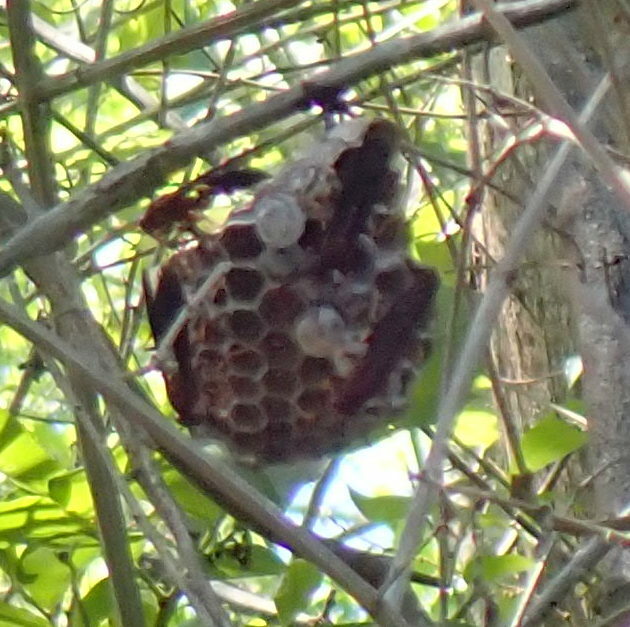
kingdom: Animalia
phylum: Arthropoda
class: Insecta
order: Hymenoptera
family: Eumenidae
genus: Polistes
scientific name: Polistes annularis
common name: Ringed paper wasp
